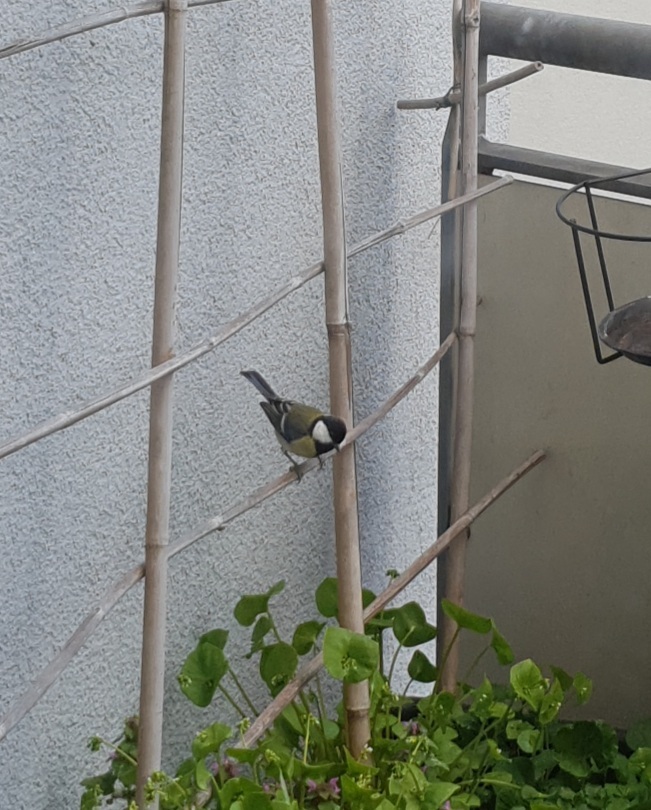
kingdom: Animalia
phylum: Chordata
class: Aves
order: Passeriformes
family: Paridae
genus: Parus
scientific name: Parus major
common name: Great tit
